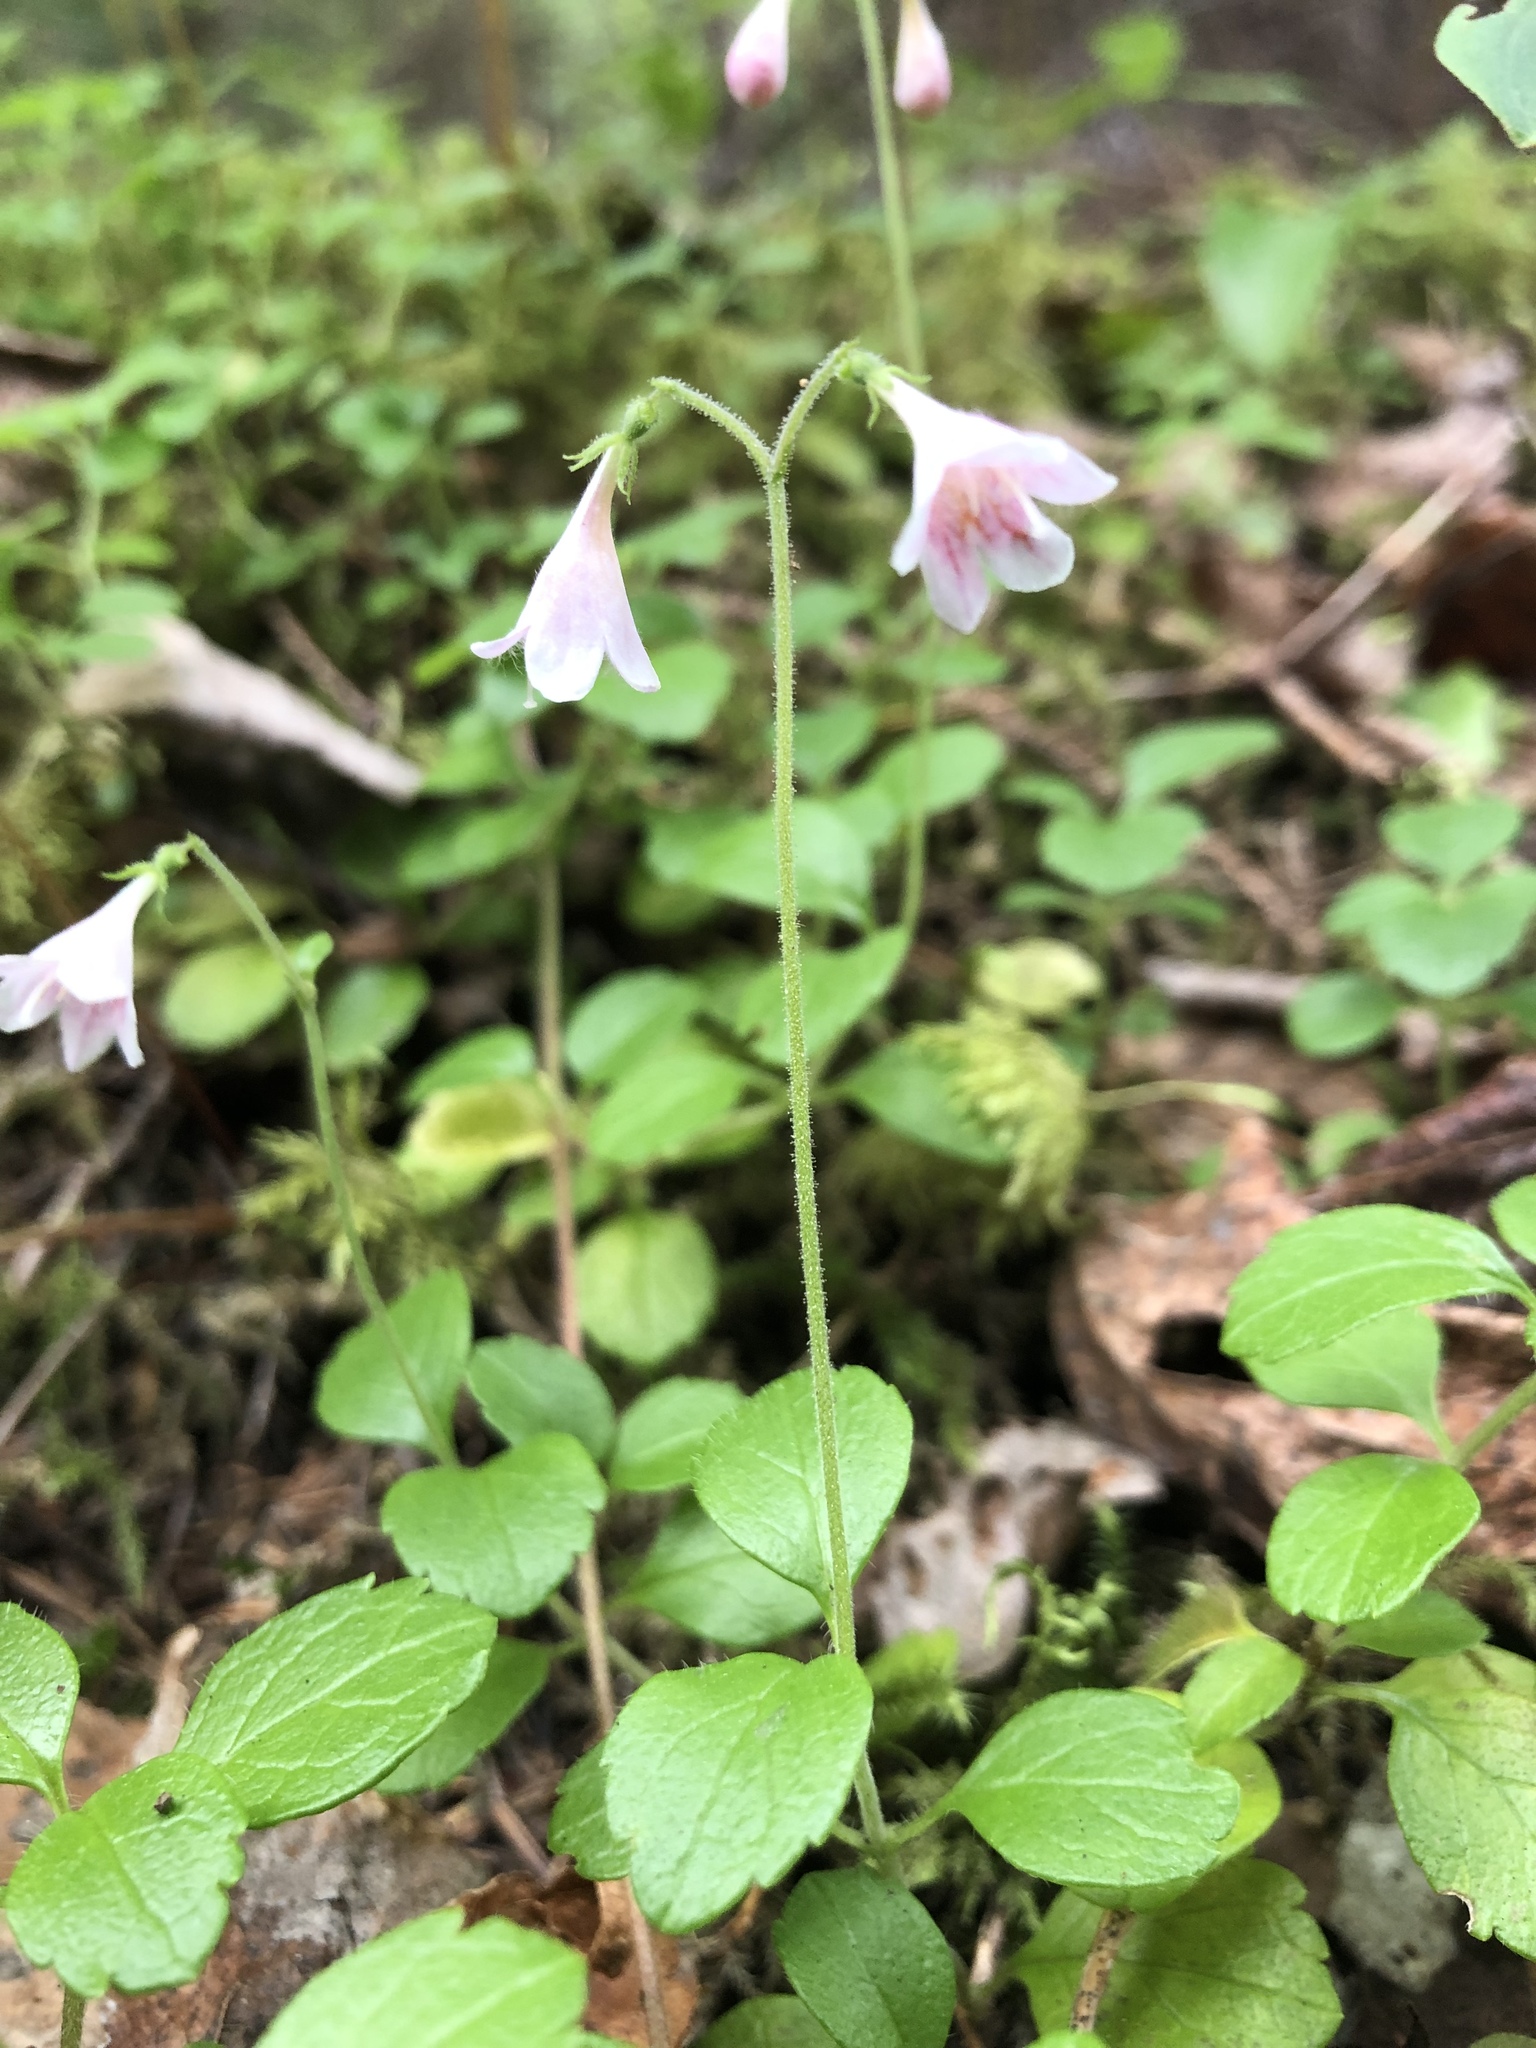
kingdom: Plantae
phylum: Tracheophyta
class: Magnoliopsida
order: Dipsacales
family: Caprifoliaceae
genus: Linnaea
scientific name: Linnaea borealis
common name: Twinflower
